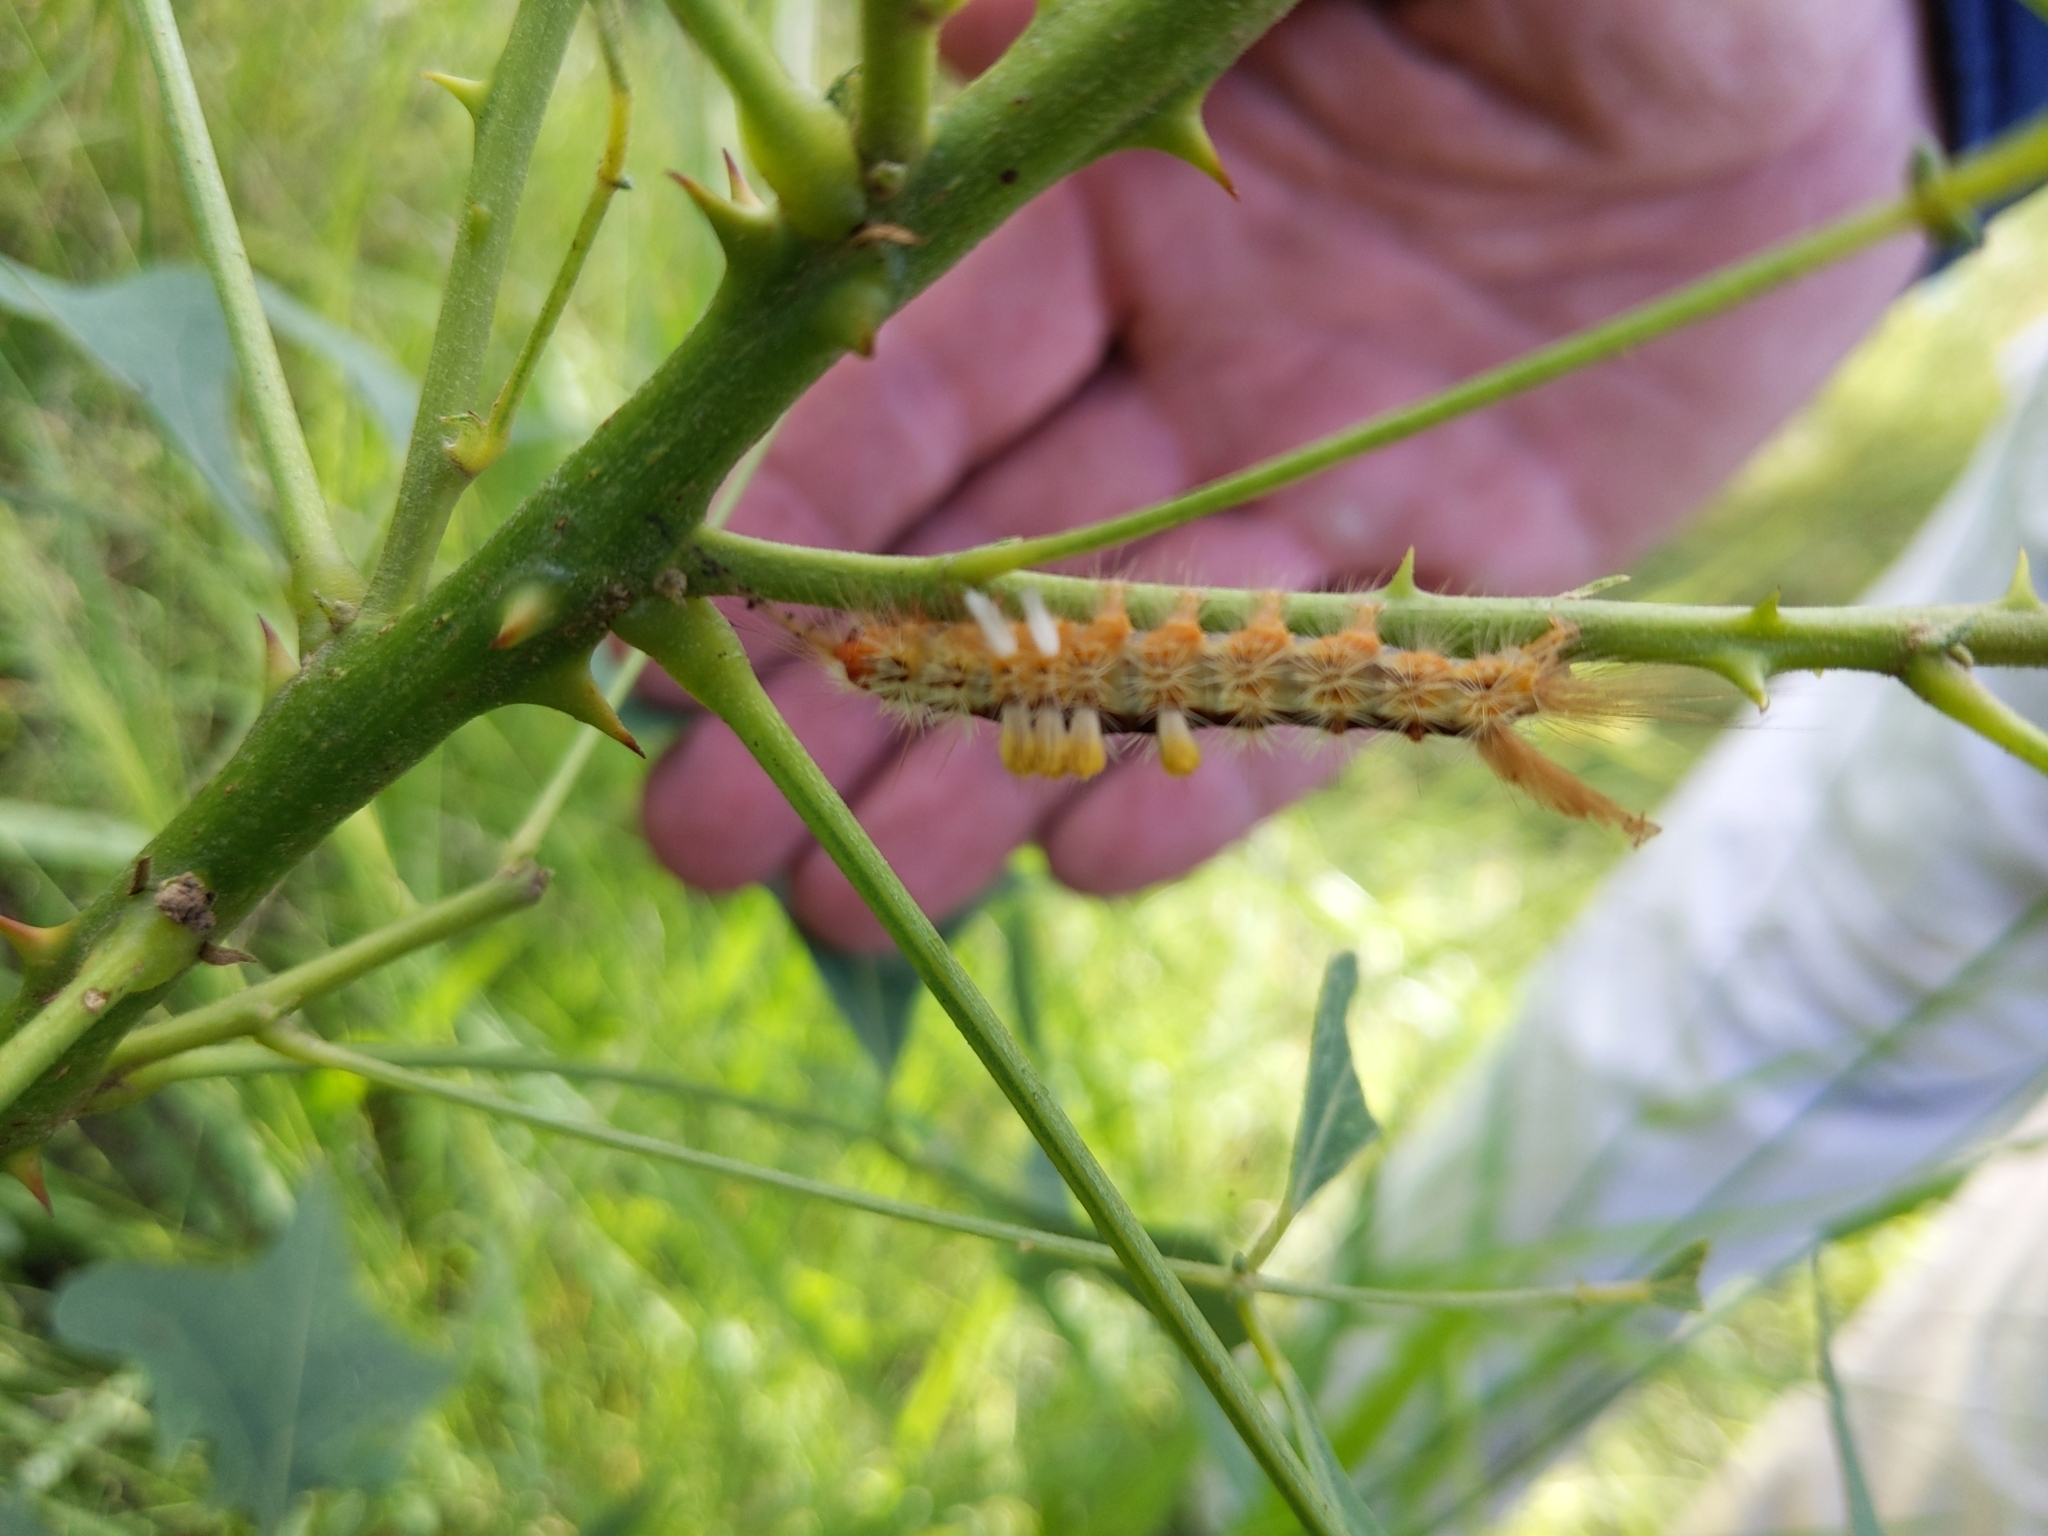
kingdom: Animalia
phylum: Arthropoda
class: Insecta
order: Lepidoptera
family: Erebidae
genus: Orgyia
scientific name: Orgyia australis
